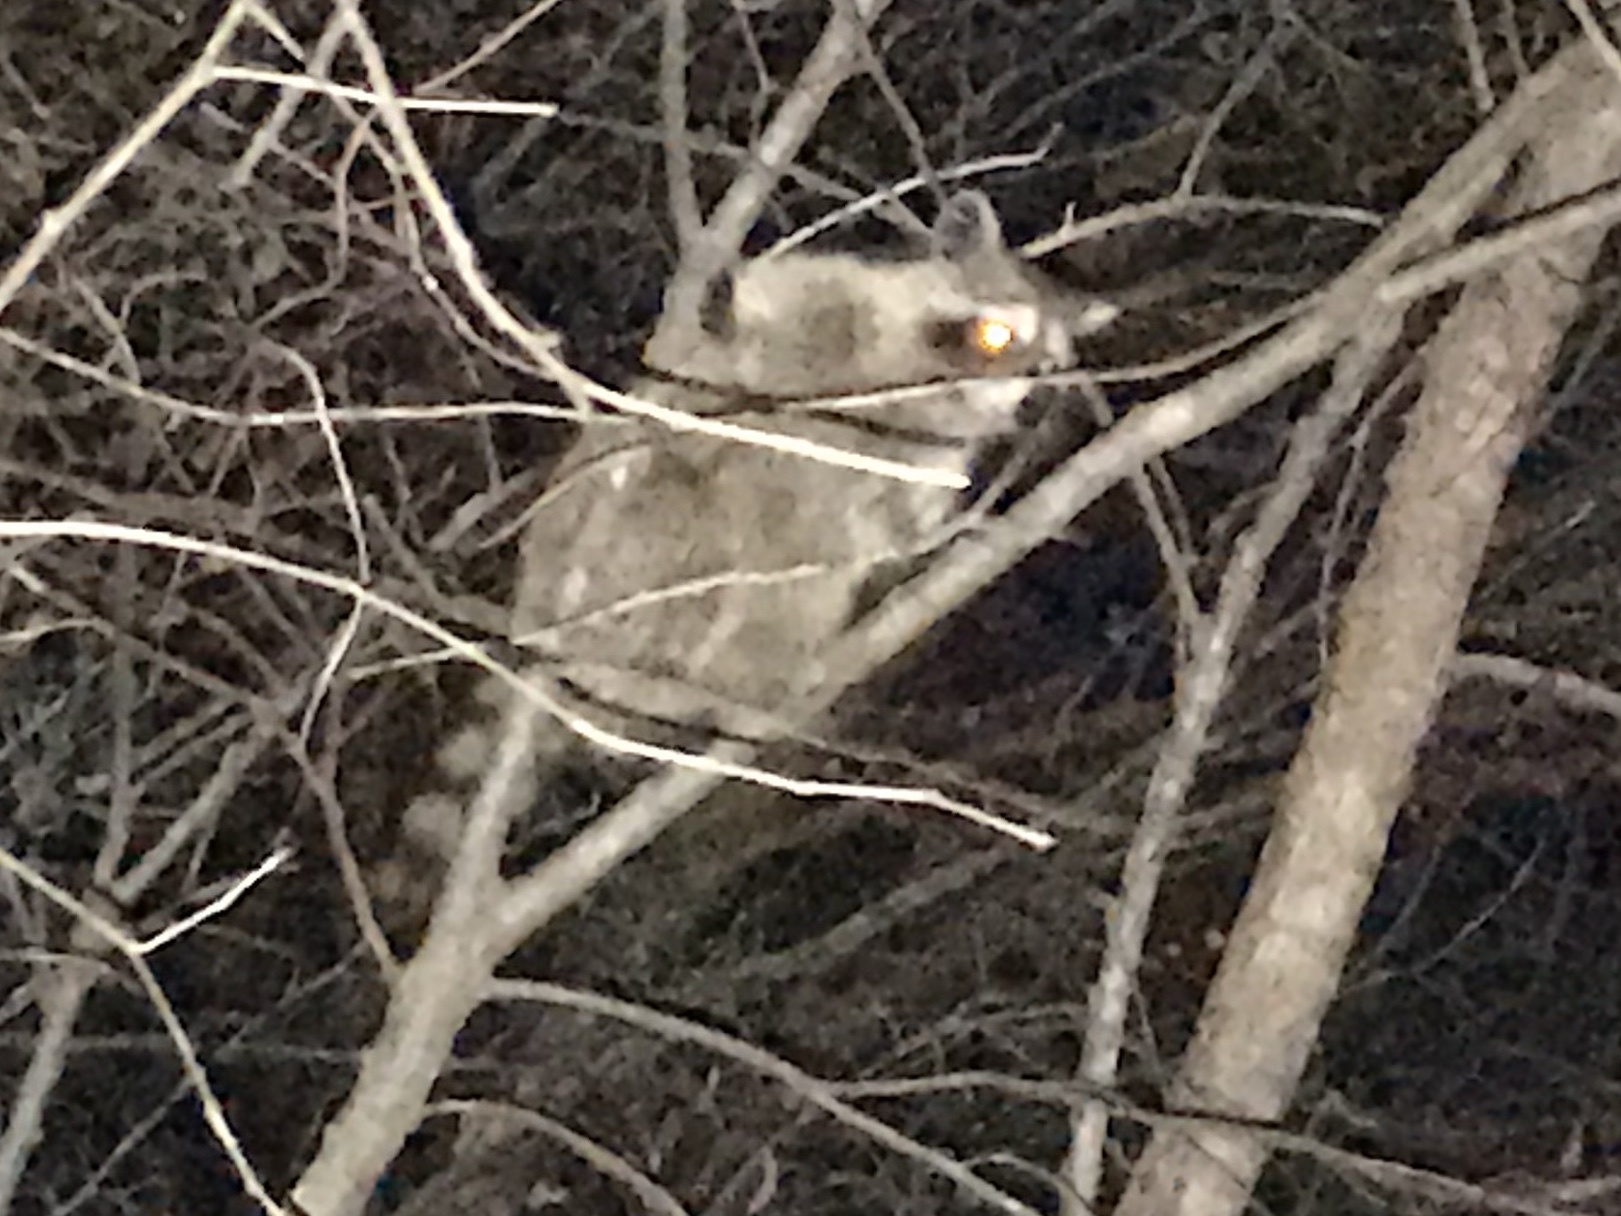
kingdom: Animalia
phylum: Chordata
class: Mammalia
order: Carnivora
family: Procyonidae
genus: Procyon
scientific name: Procyon lotor
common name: Raccoon
